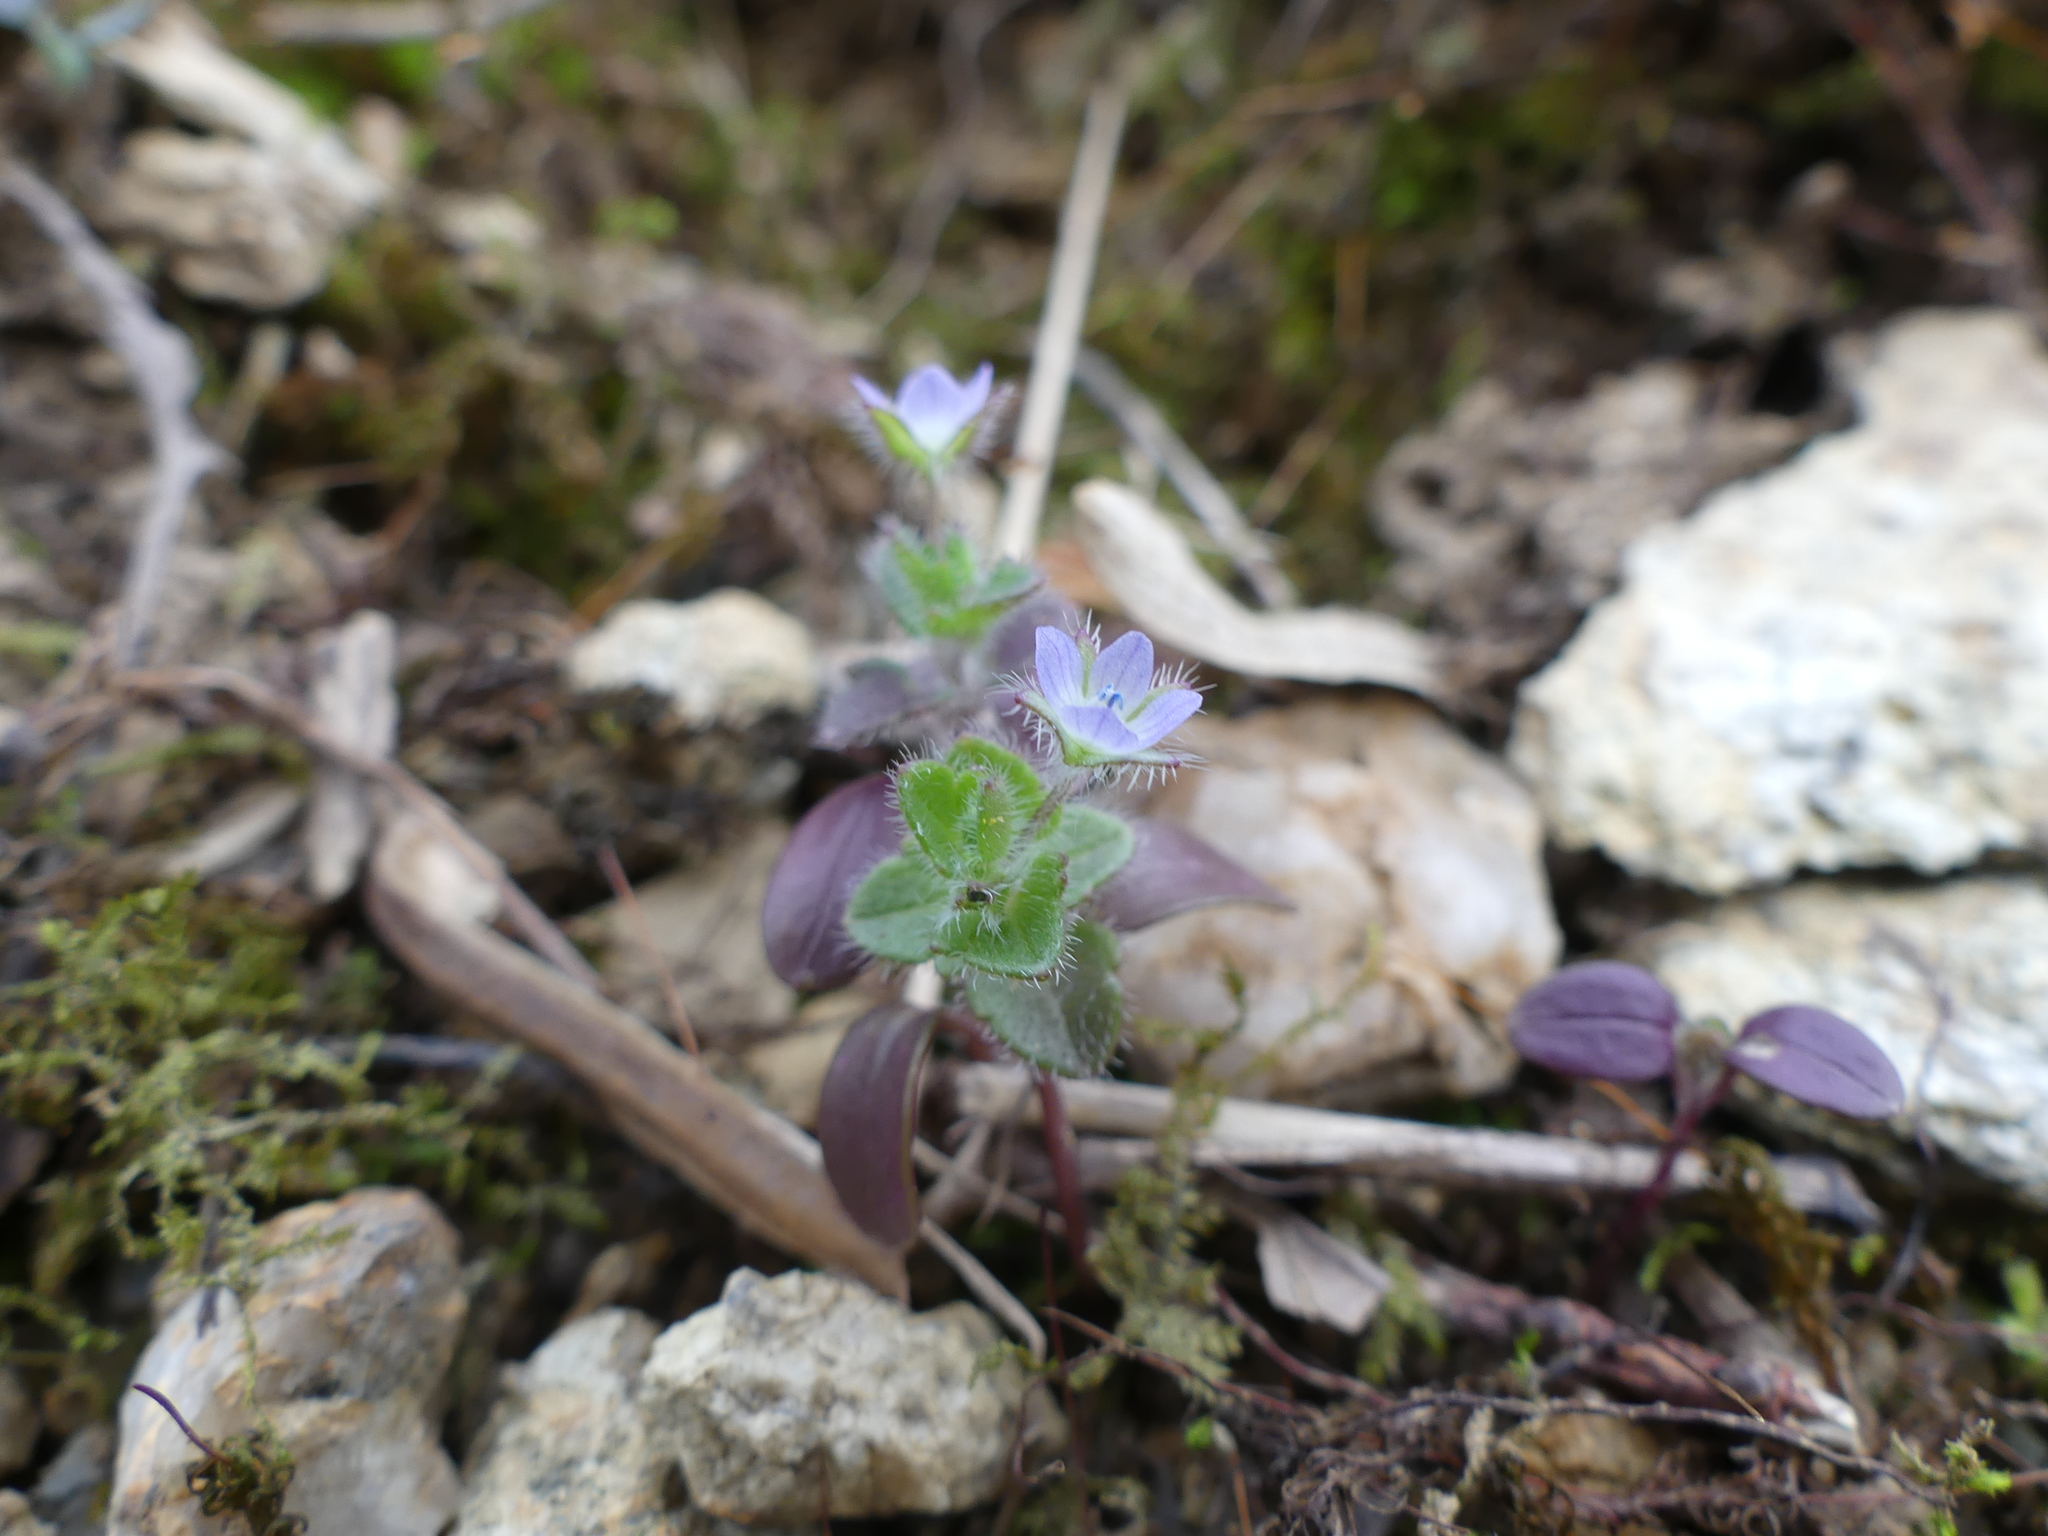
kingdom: Plantae
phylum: Tracheophyta
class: Magnoliopsida
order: Lamiales
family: Plantaginaceae
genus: Veronica
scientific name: Veronica hederifolia
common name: Ivy-leaved speedwell
